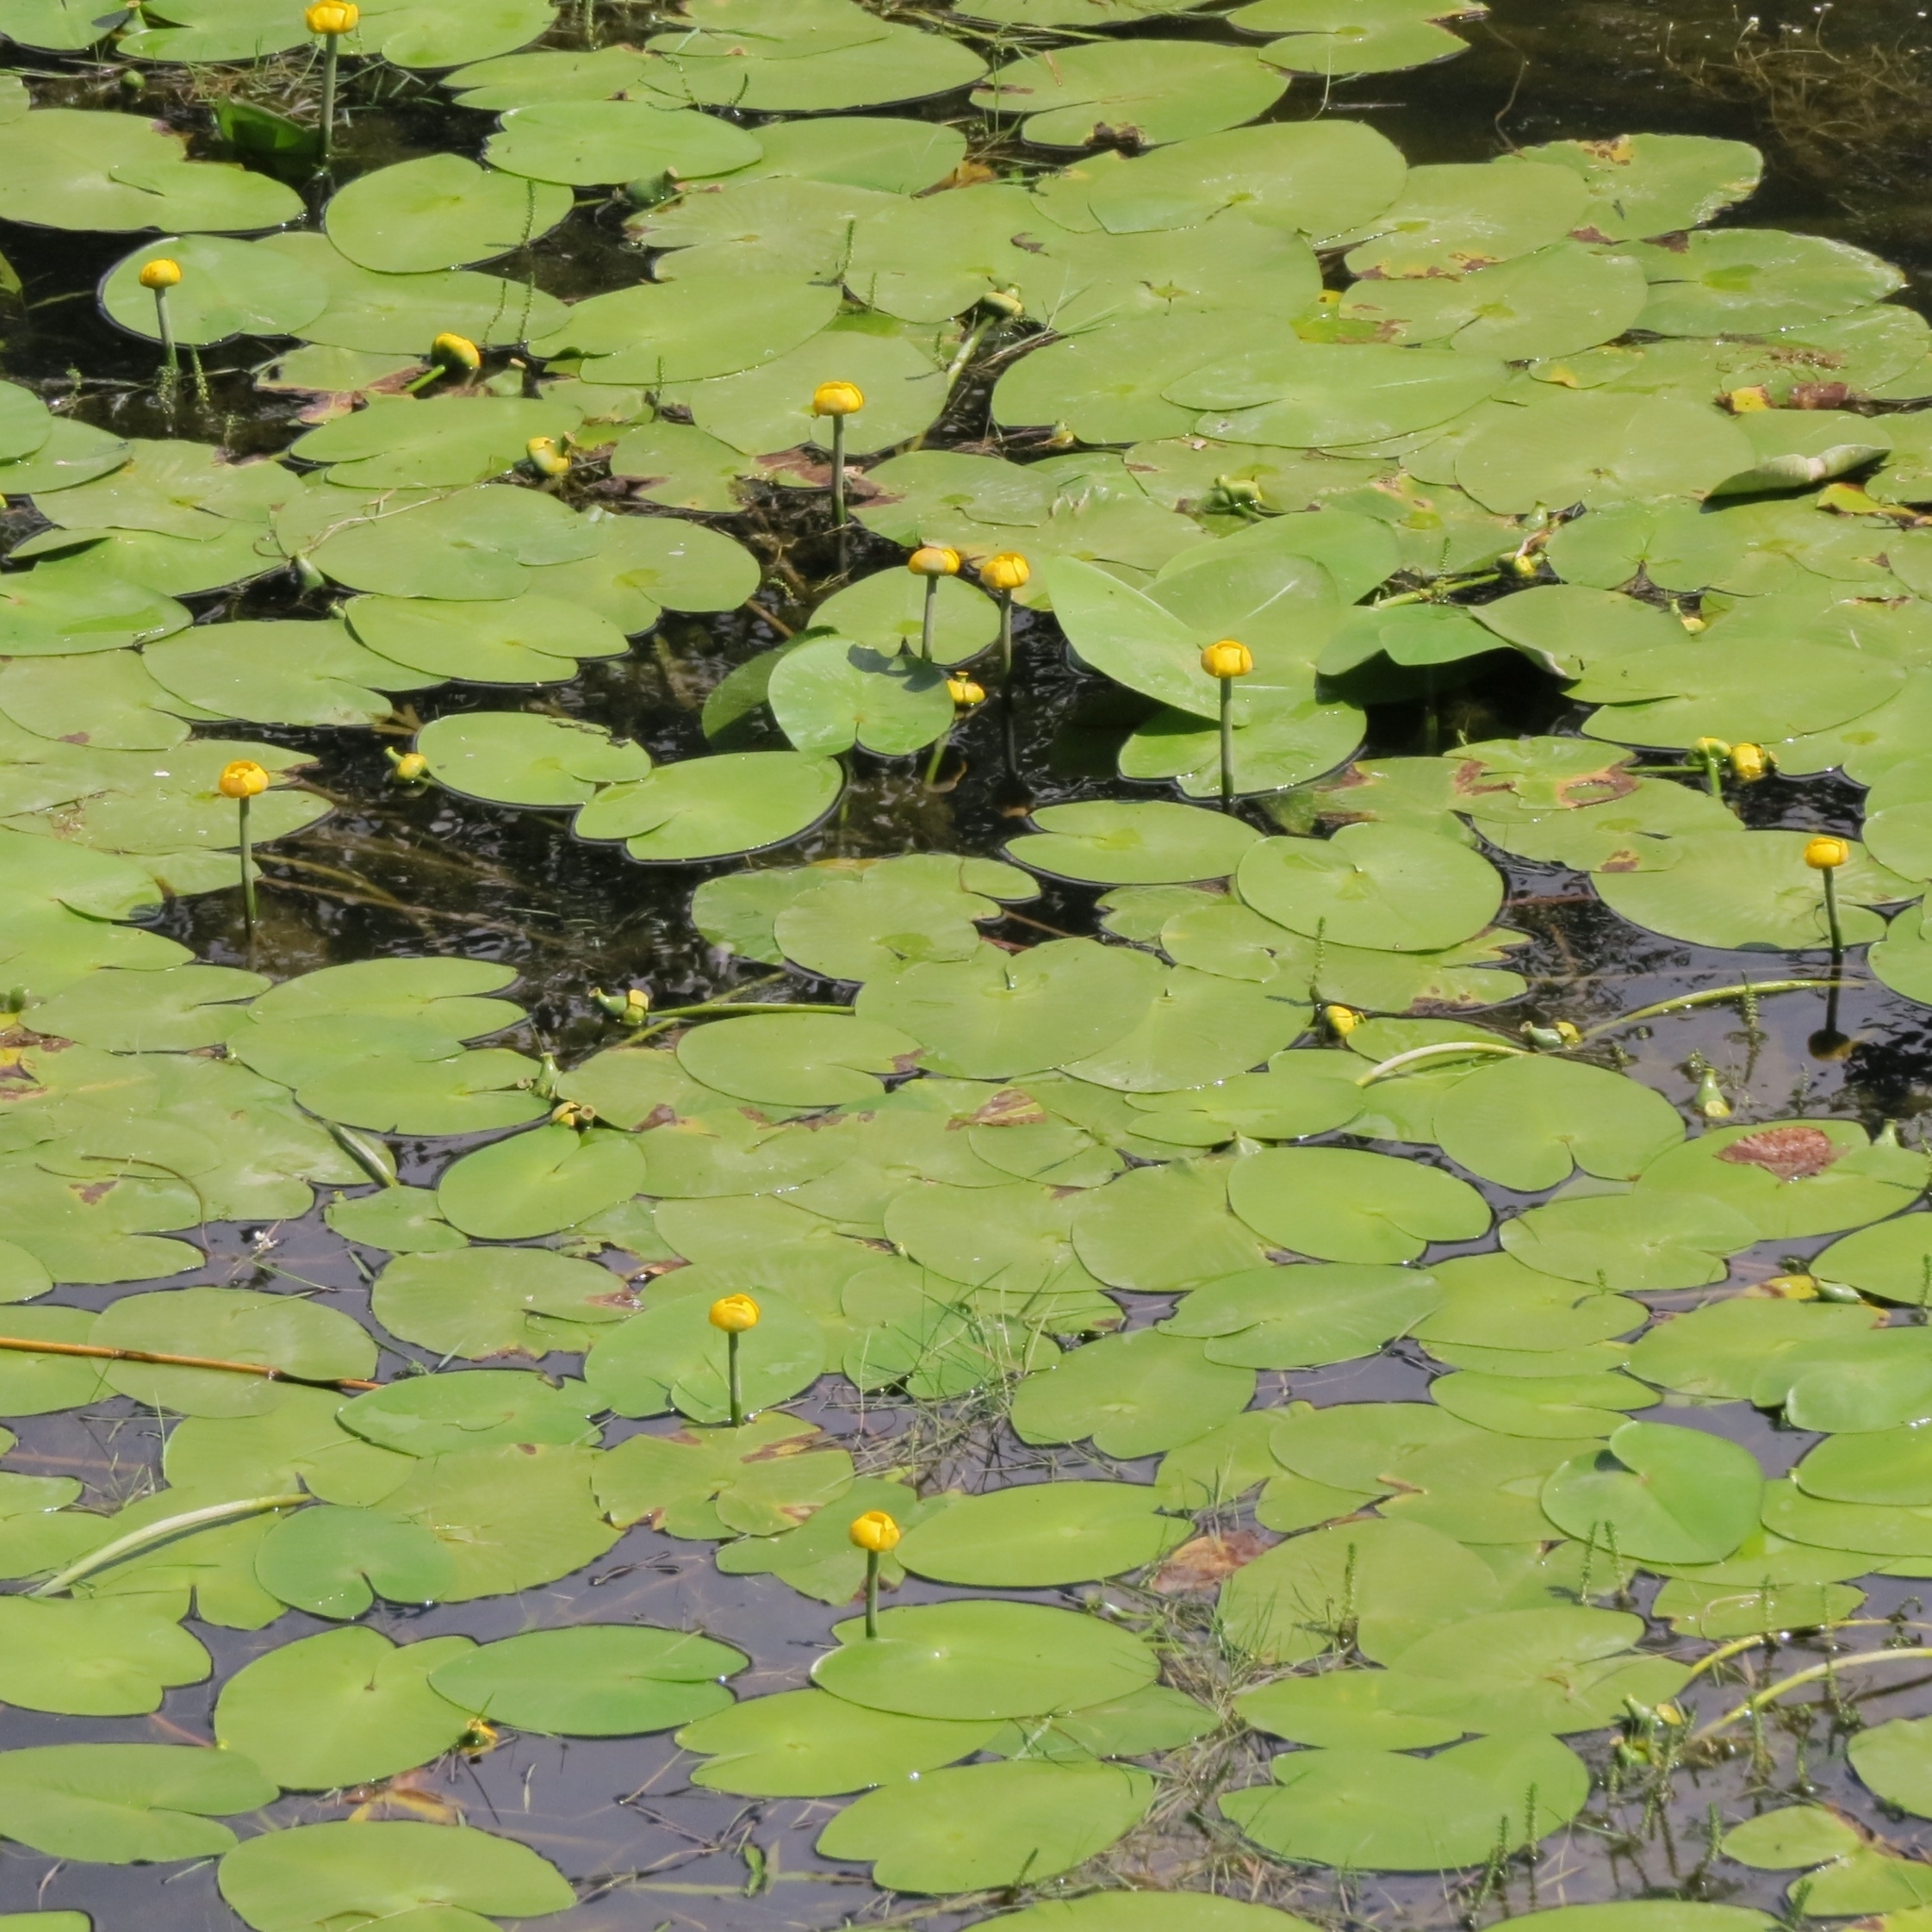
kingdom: Plantae
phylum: Tracheophyta
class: Magnoliopsida
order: Nymphaeales
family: Nymphaeaceae
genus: Nuphar
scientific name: Nuphar lutea
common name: Yellow water-lily
